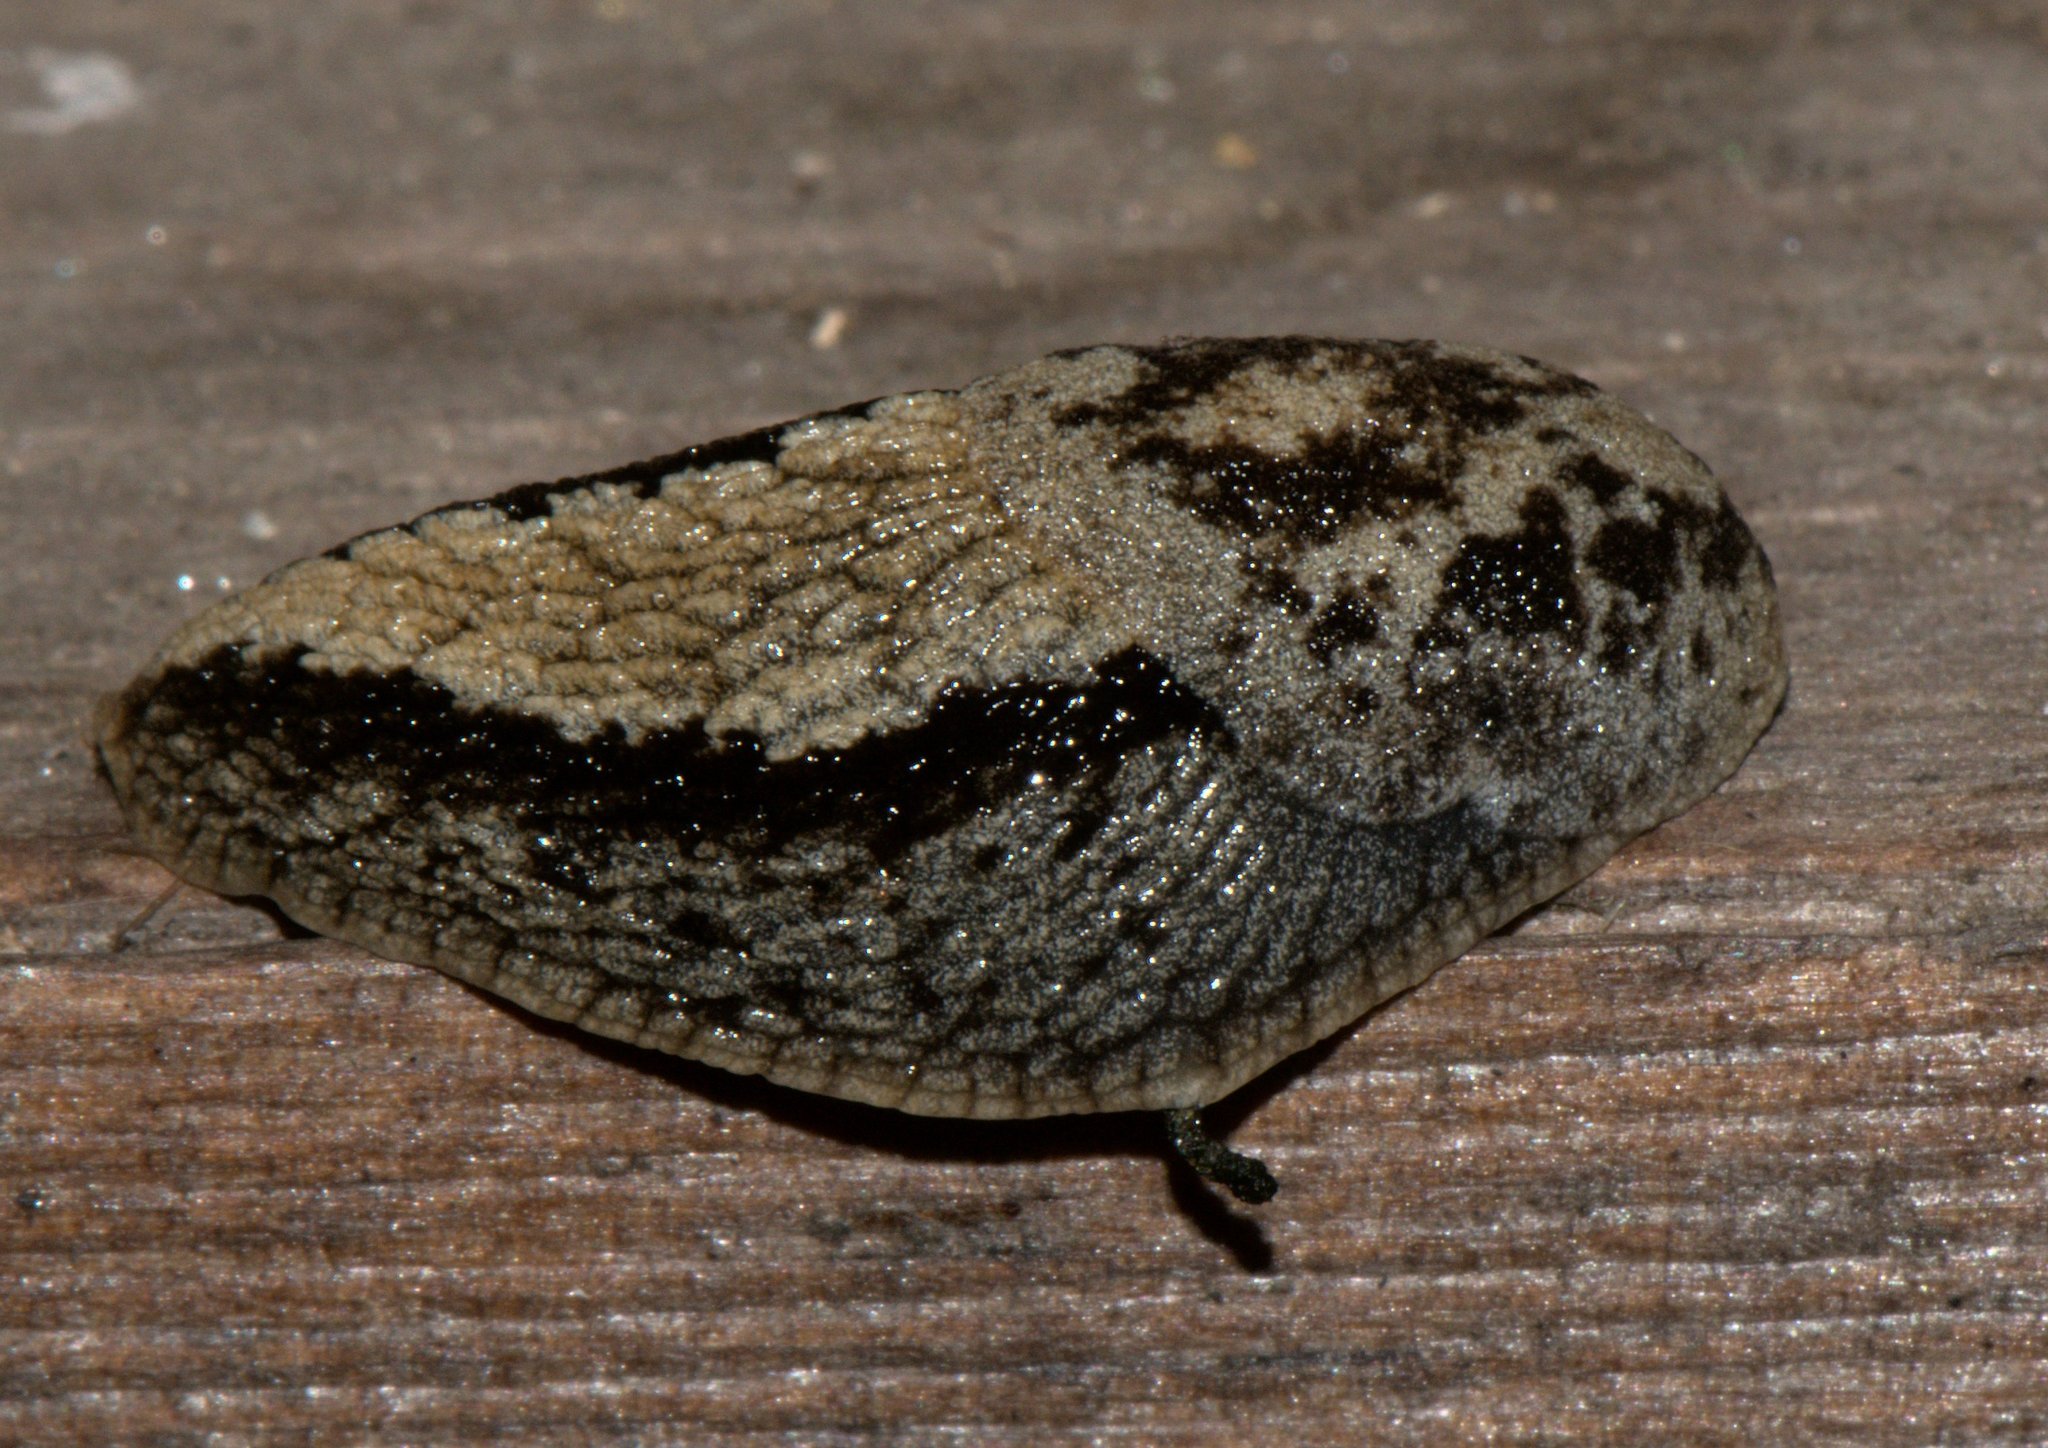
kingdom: Animalia
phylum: Mollusca
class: Gastropoda
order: Stylommatophora
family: Anadenidae
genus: Anadenus
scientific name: Anadenus altivagus
